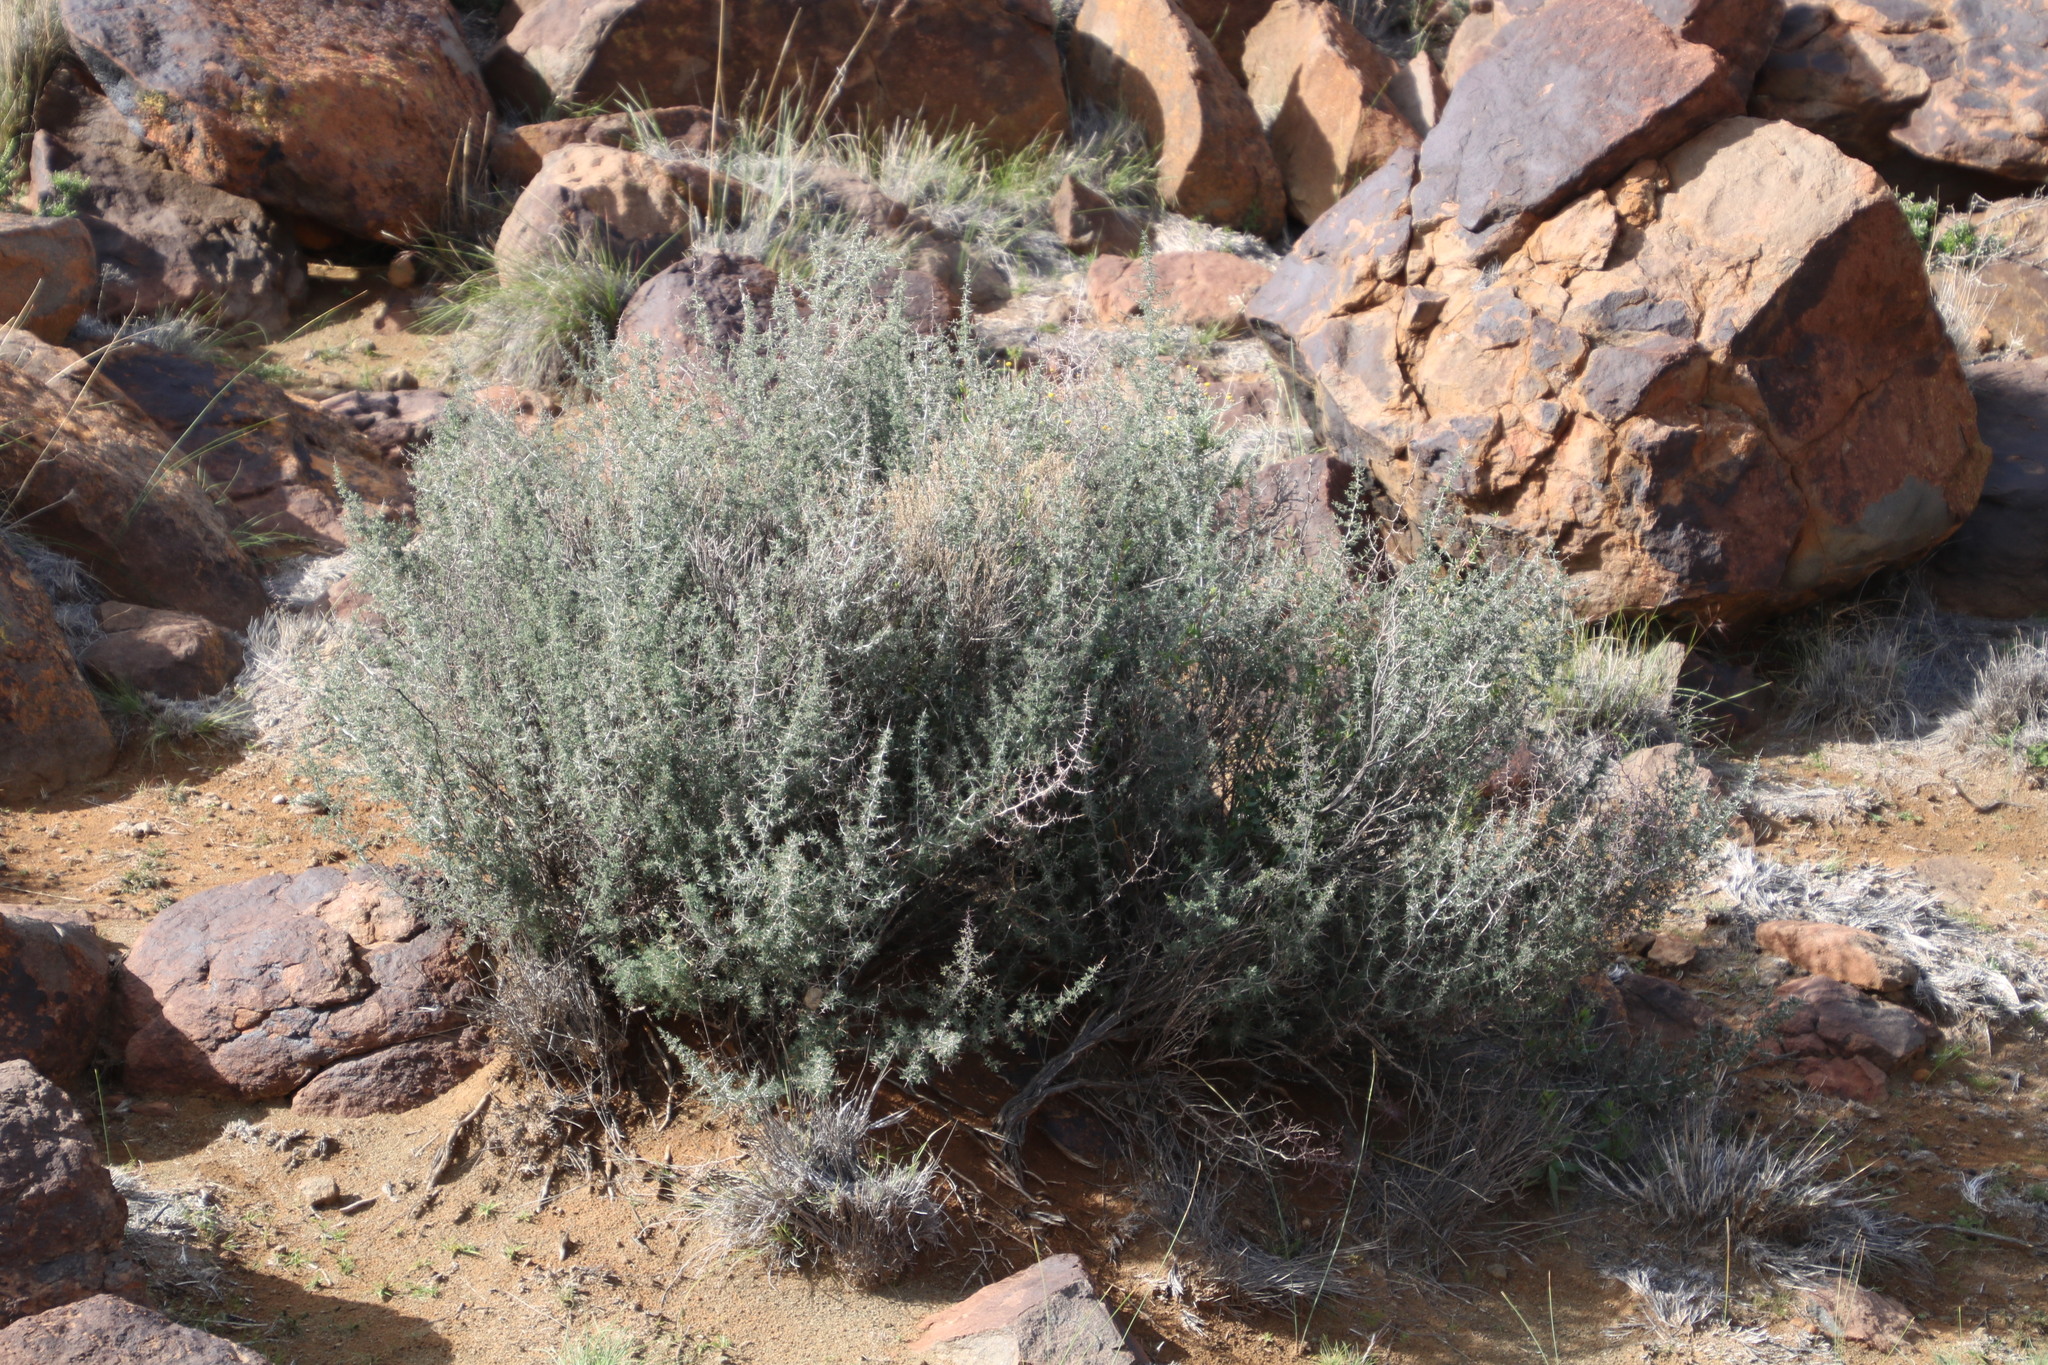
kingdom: Plantae
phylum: Tracheophyta
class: Liliopsida
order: Asparagales
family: Asparagaceae
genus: Asparagus
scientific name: Asparagus suaveolens
